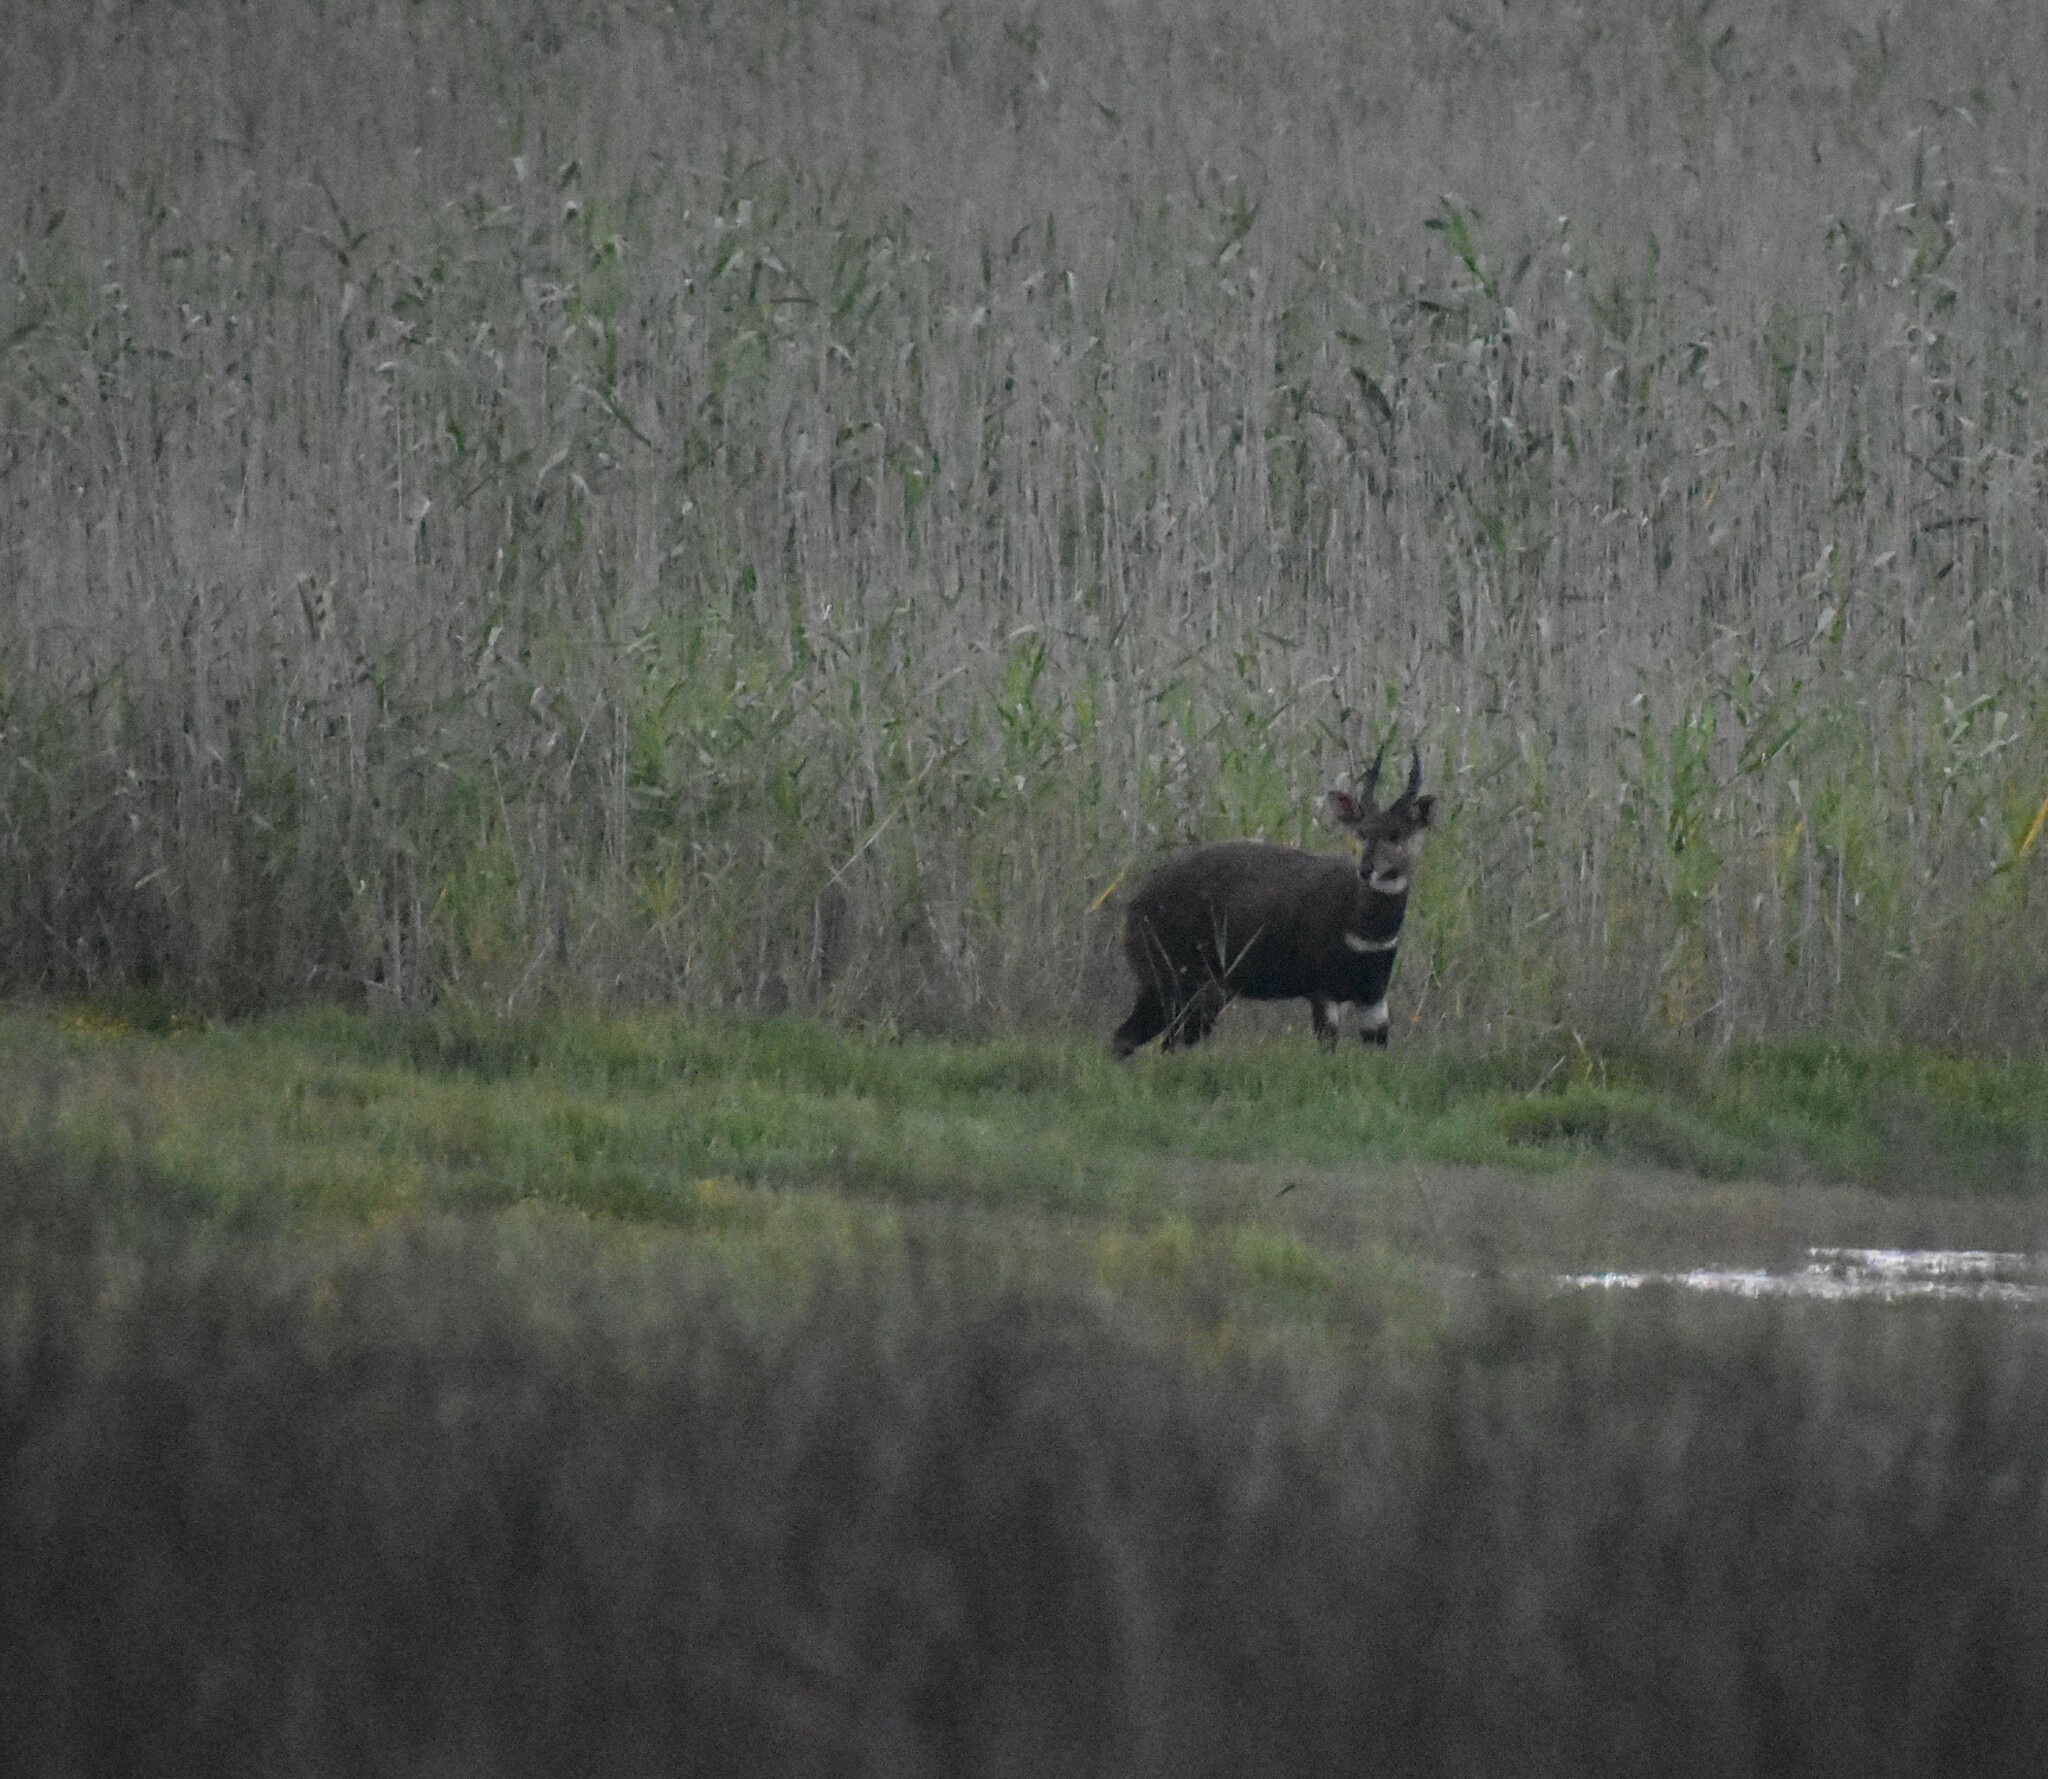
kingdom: Animalia
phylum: Chordata
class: Mammalia
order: Artiodactyla
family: Bovidae
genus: Tragelaphus
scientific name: Tragelaphus scriptus
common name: Bushbuck
